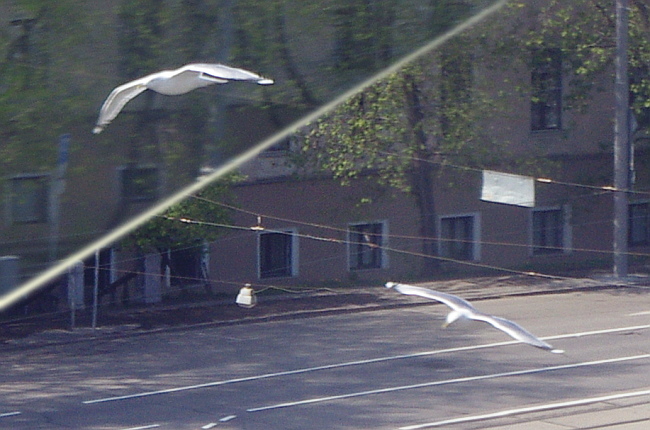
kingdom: Animalia
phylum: Chordata
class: Aves
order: Charadriiformes
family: Laridae
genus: Larus
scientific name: Larus canus
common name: Mew gull
